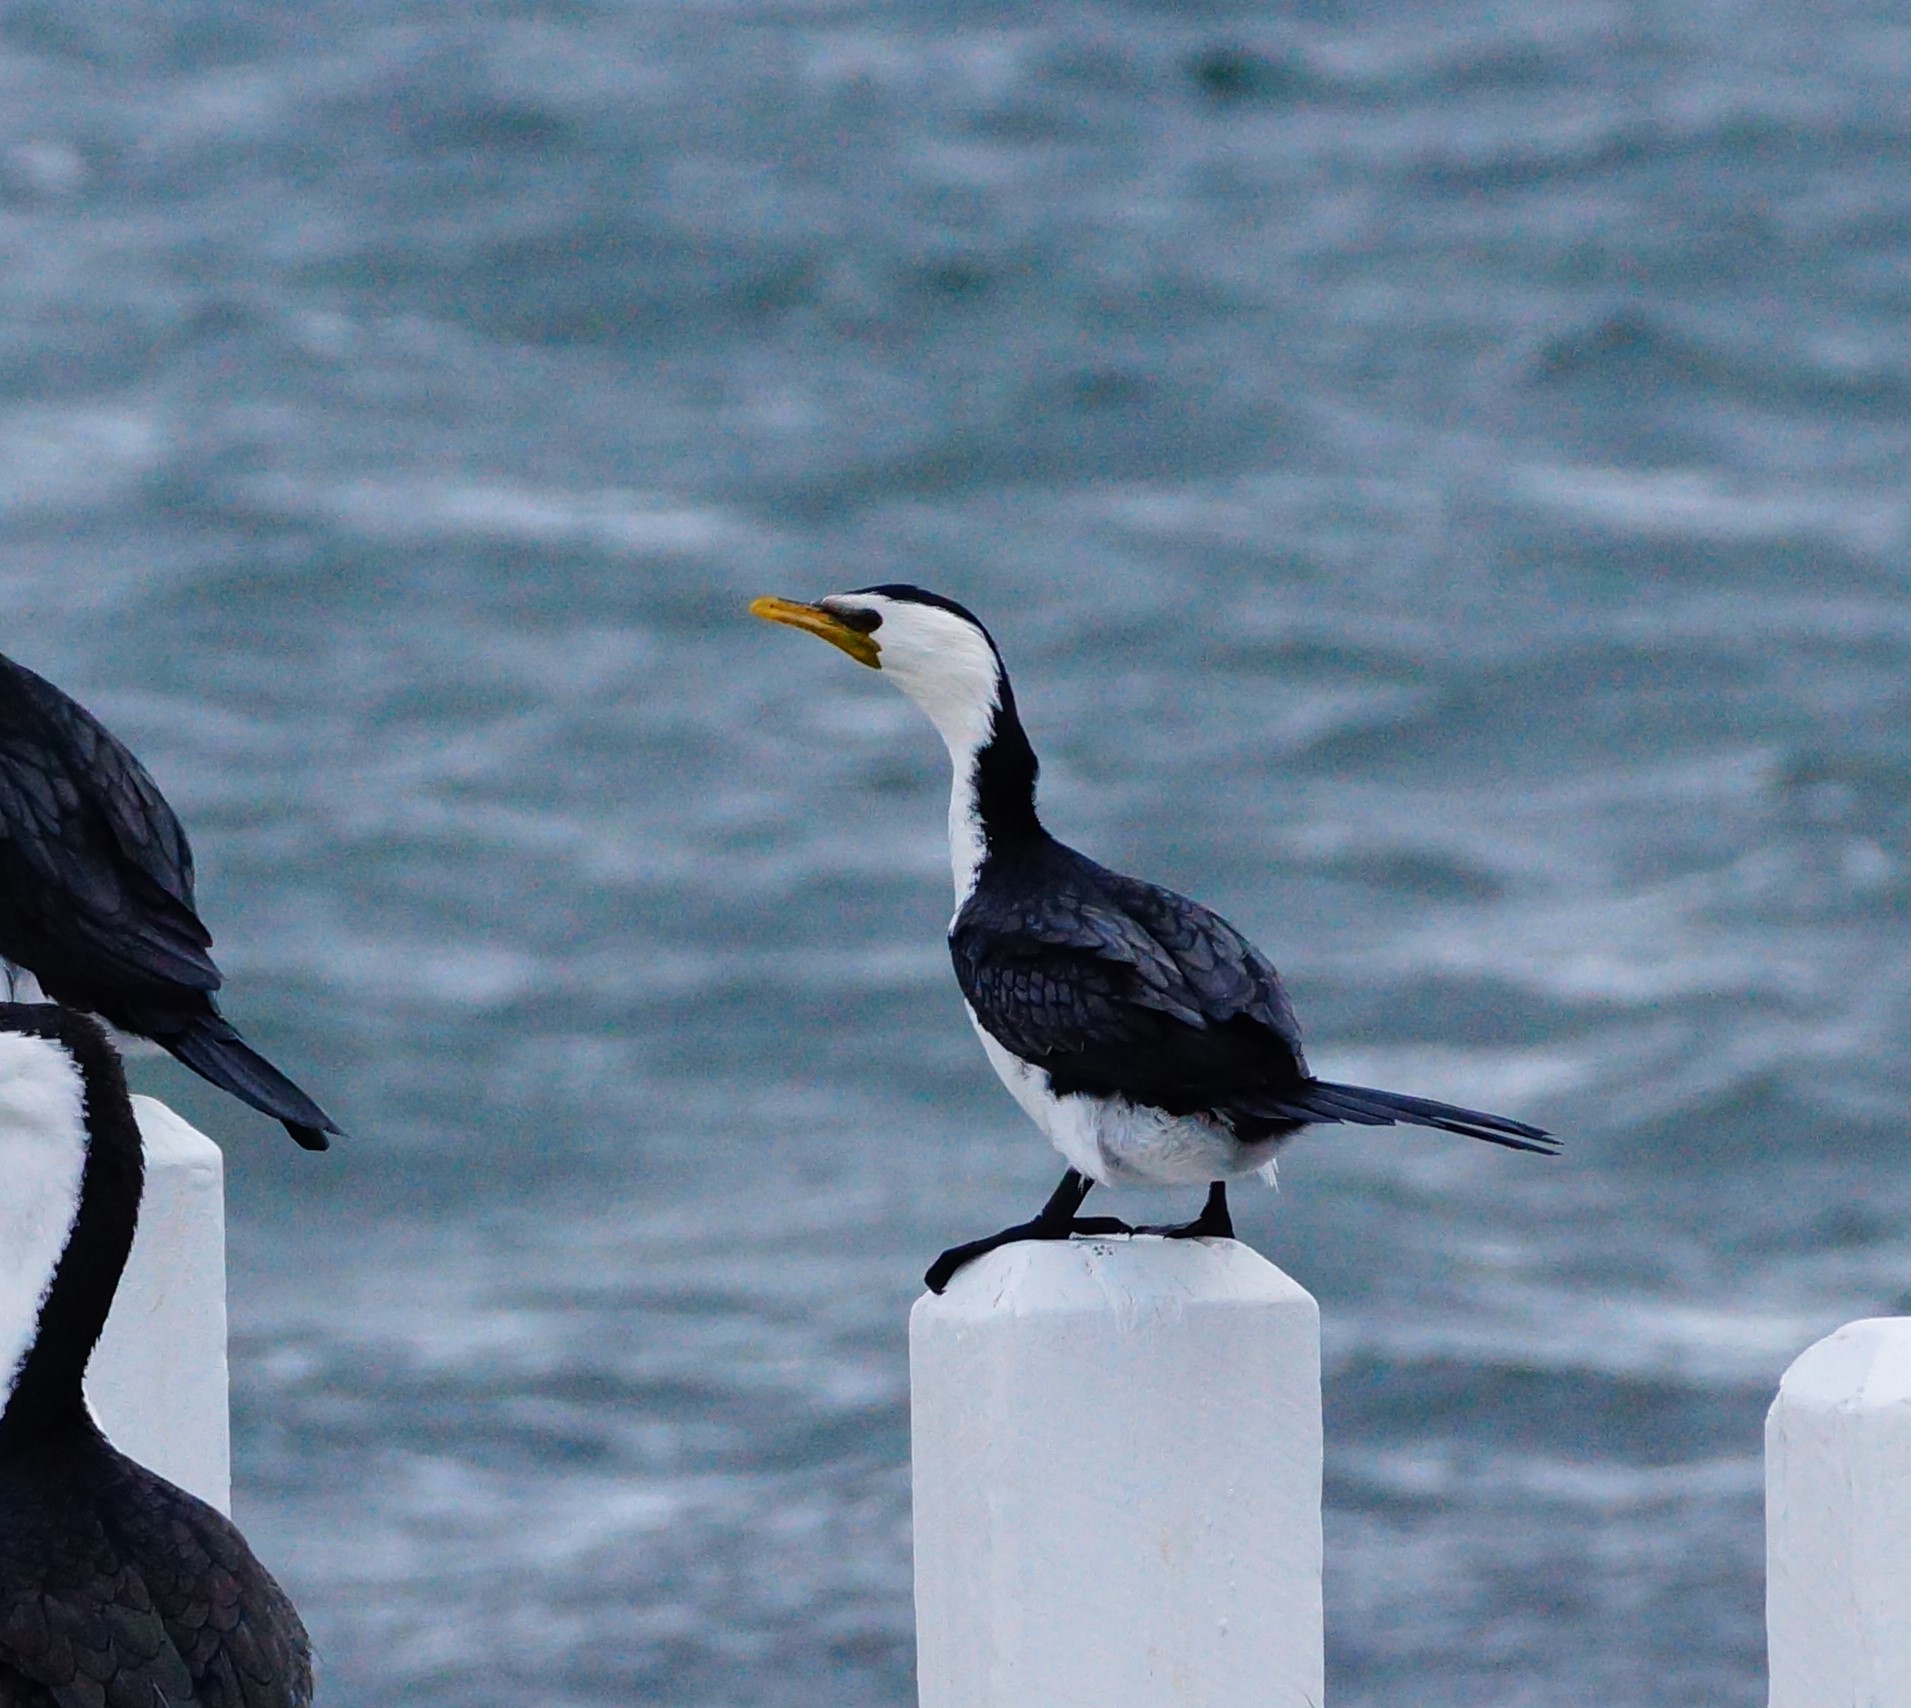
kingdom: Animalia
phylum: Chordata
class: Aves
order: Suliformes
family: Phalacrocoracidae
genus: Microcarbo
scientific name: Microcarbo melanoleucos
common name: Little pied cormorant
